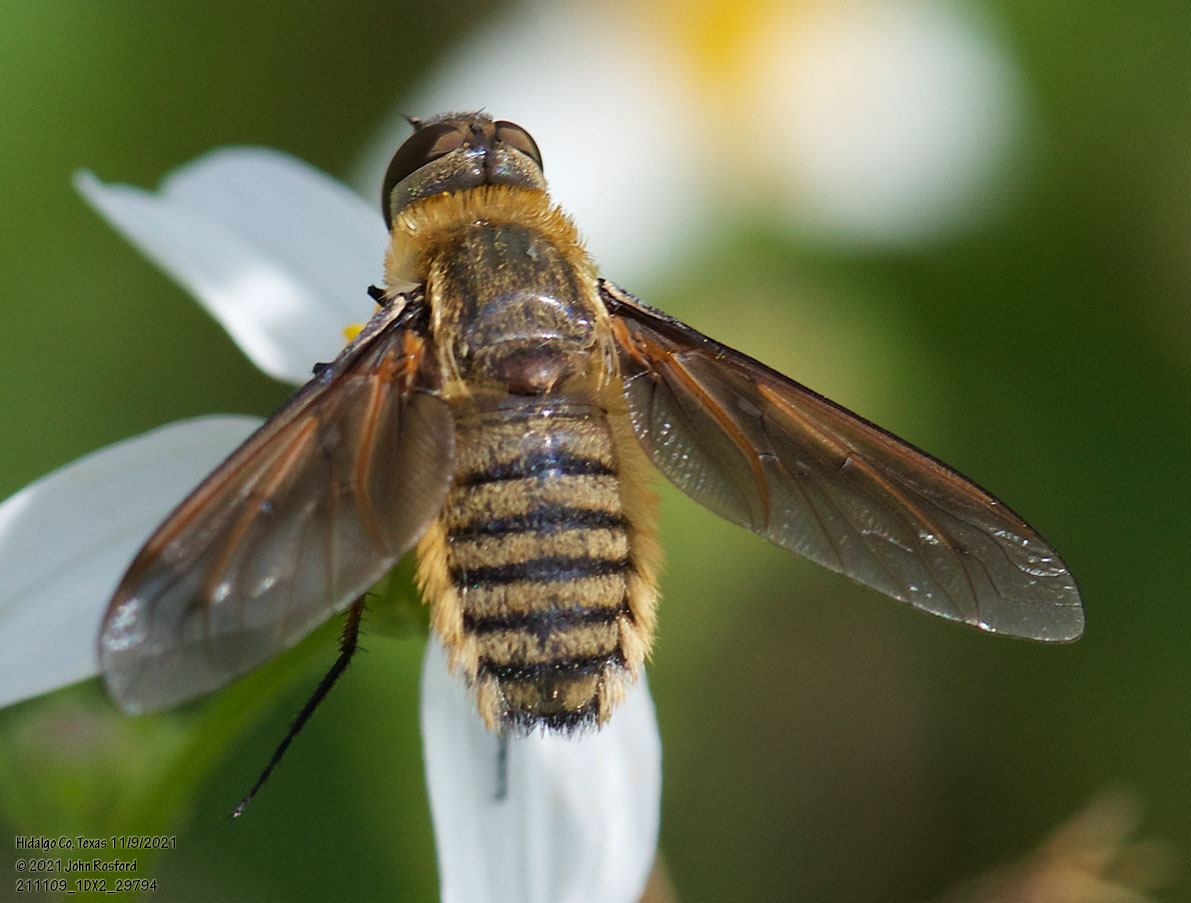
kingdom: Animalia
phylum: Arthropoda
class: Insecta
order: Diptera
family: Bombyliidae
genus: Poecilanthrax
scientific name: Poecilanthrax lucifer
